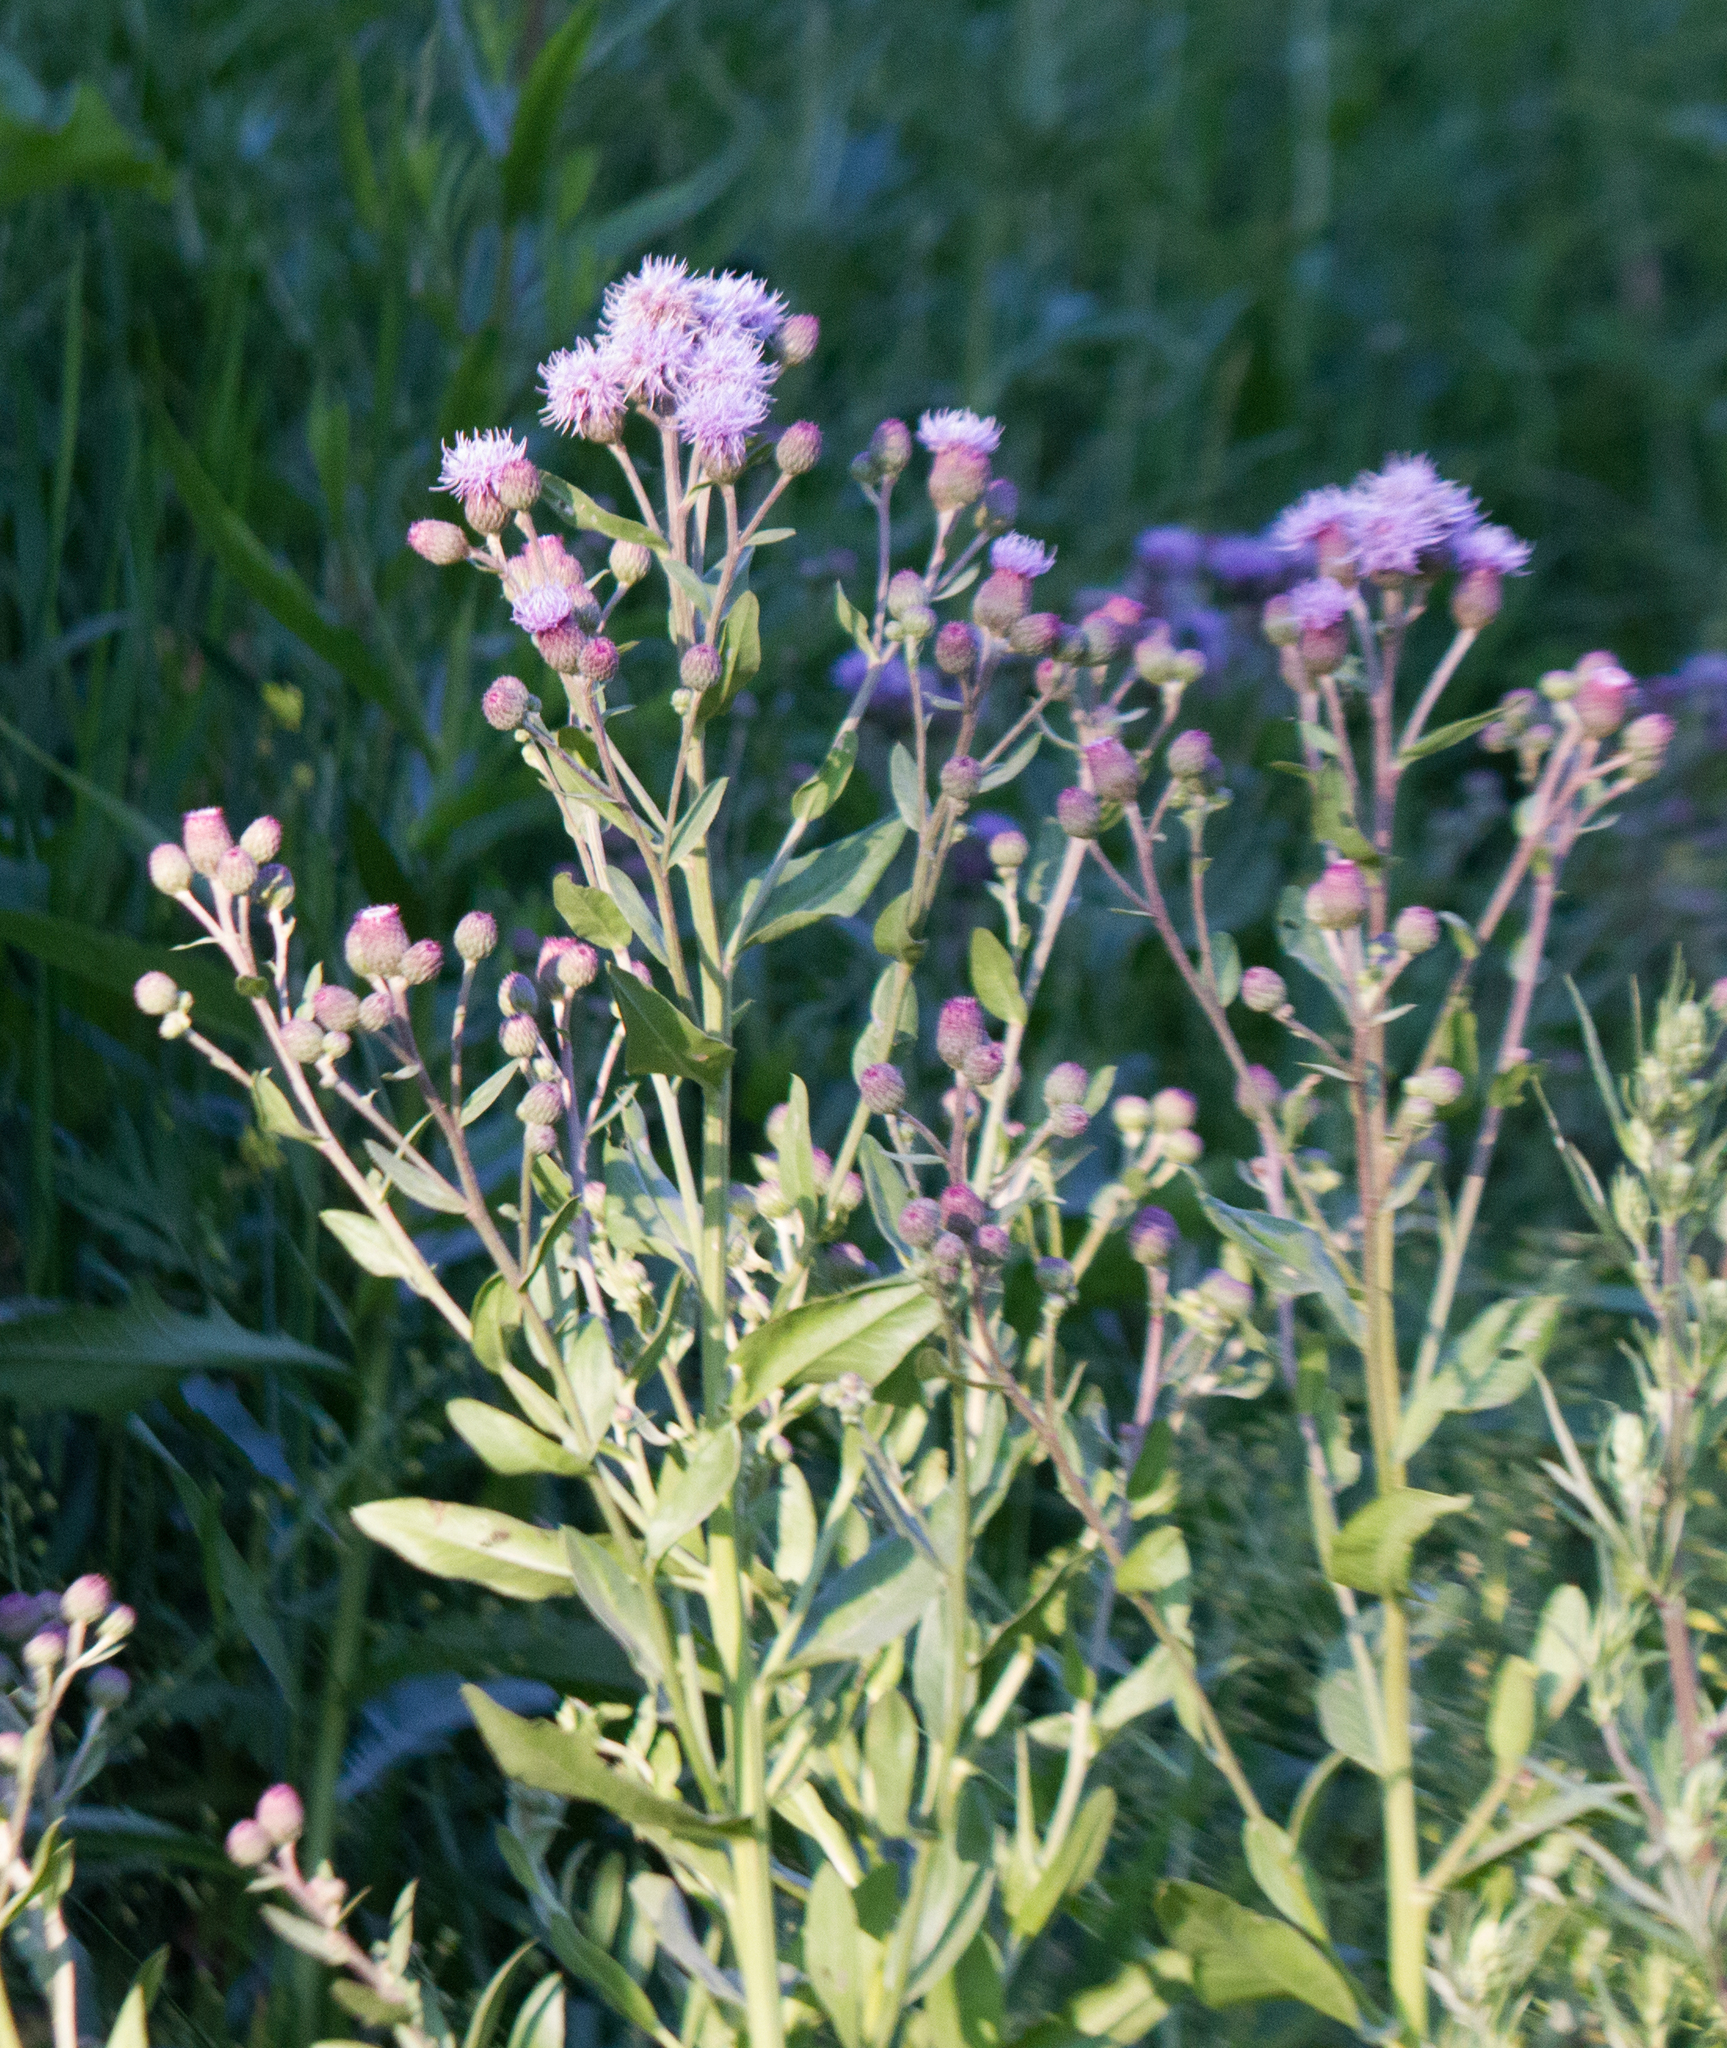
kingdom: Plantae
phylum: Tracheophyta
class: Magnoliopsida
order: Asterales
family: Asteraceae
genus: Cirsium
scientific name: Cirsium arvense
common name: Creeping thistle
